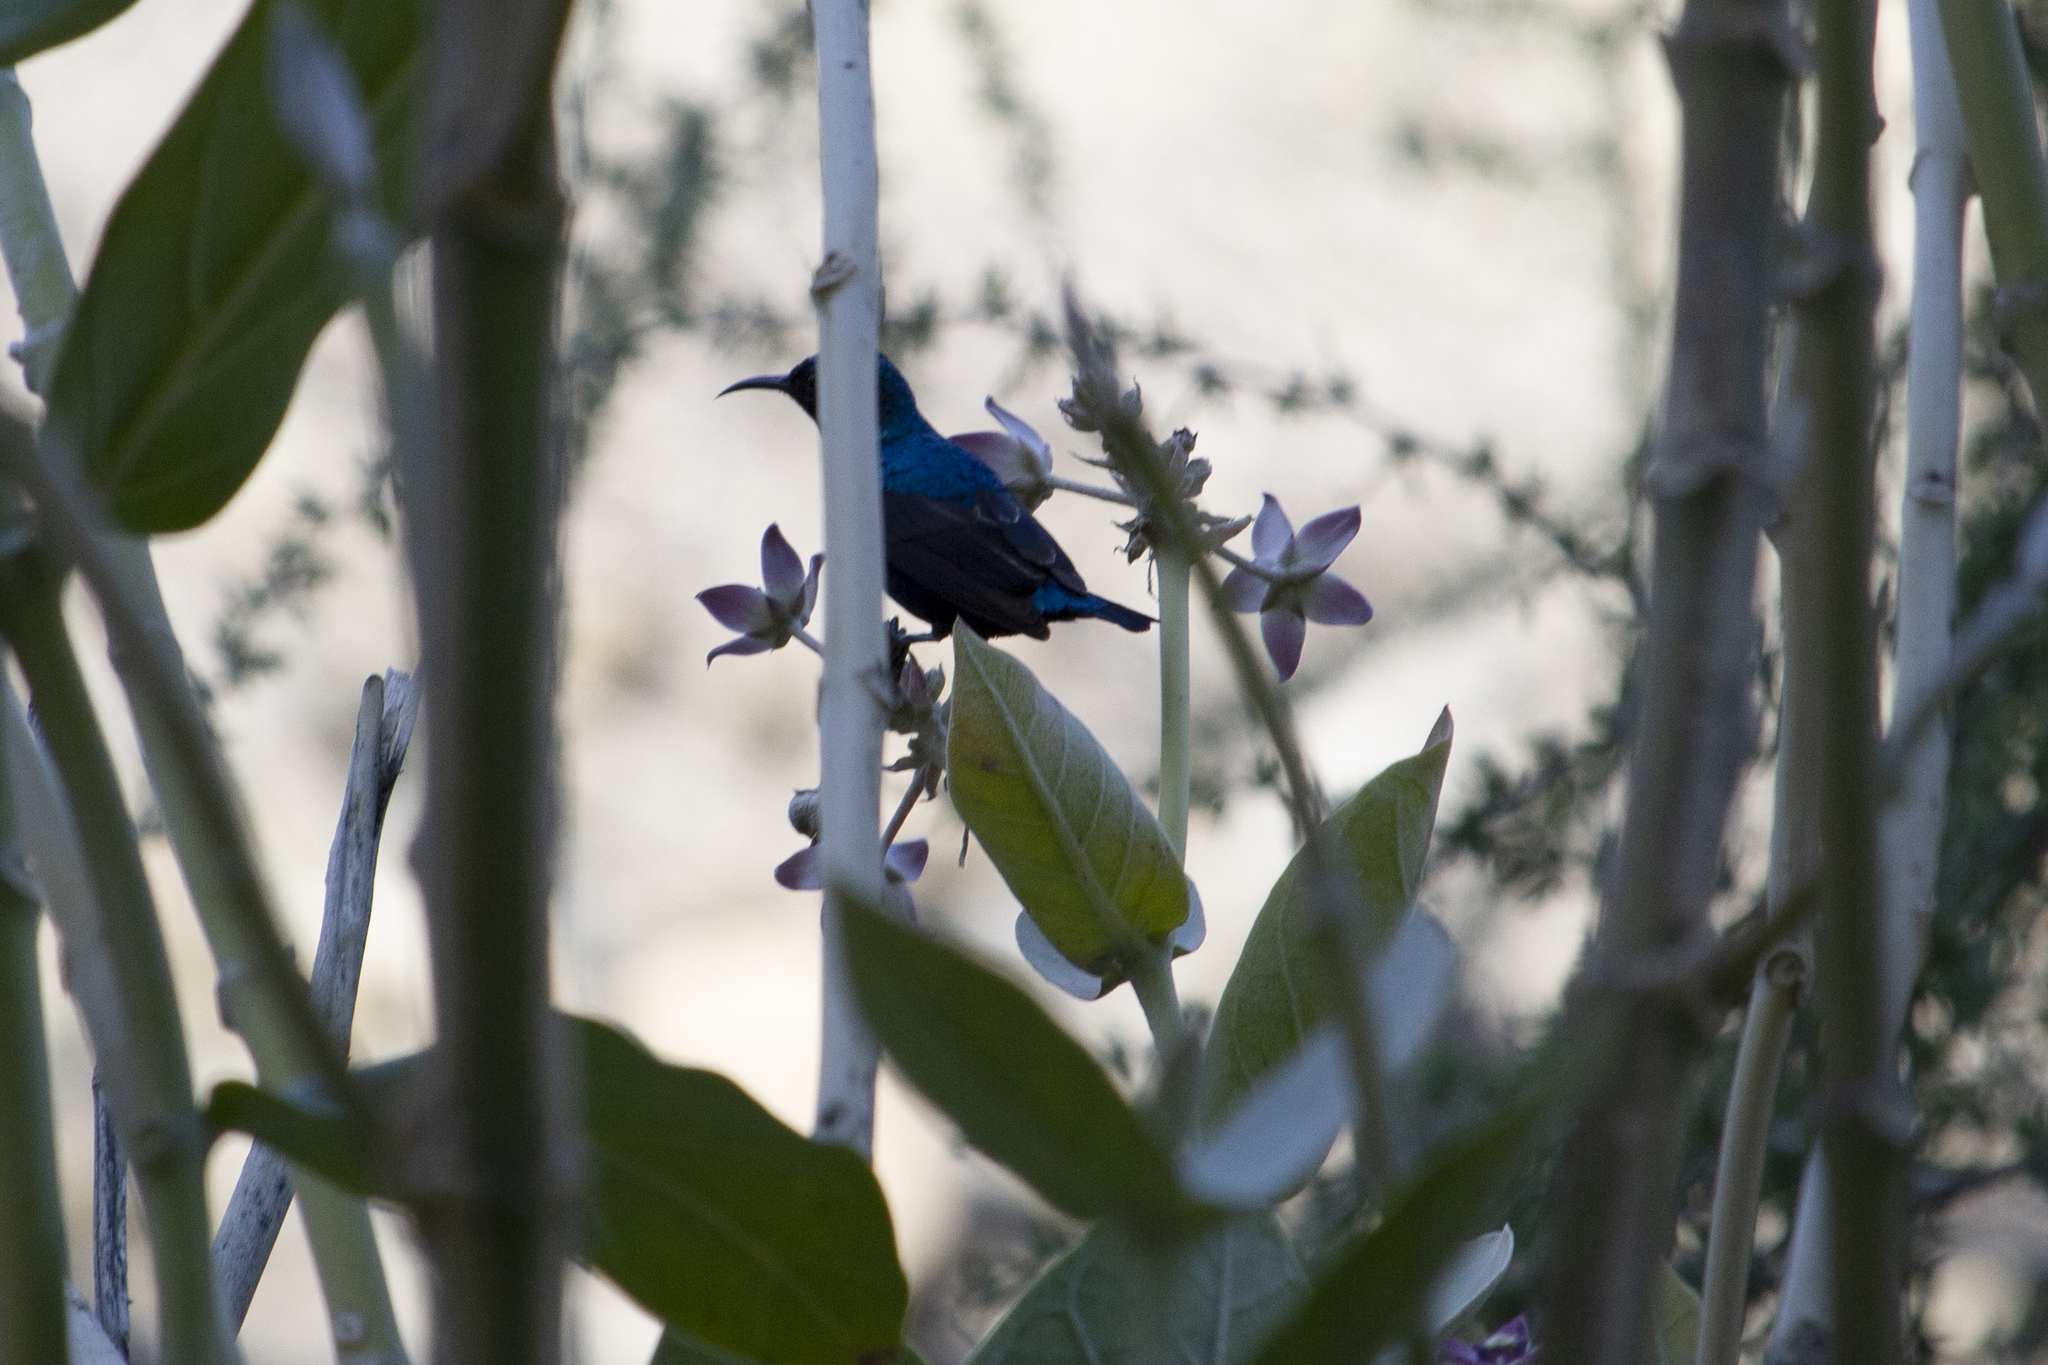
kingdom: Animalia
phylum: Chordata
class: Aves
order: Passeriformes
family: Nectariniidae
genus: Cinnyris
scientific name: Cinnyris asiaticus
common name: Purple sunbird
